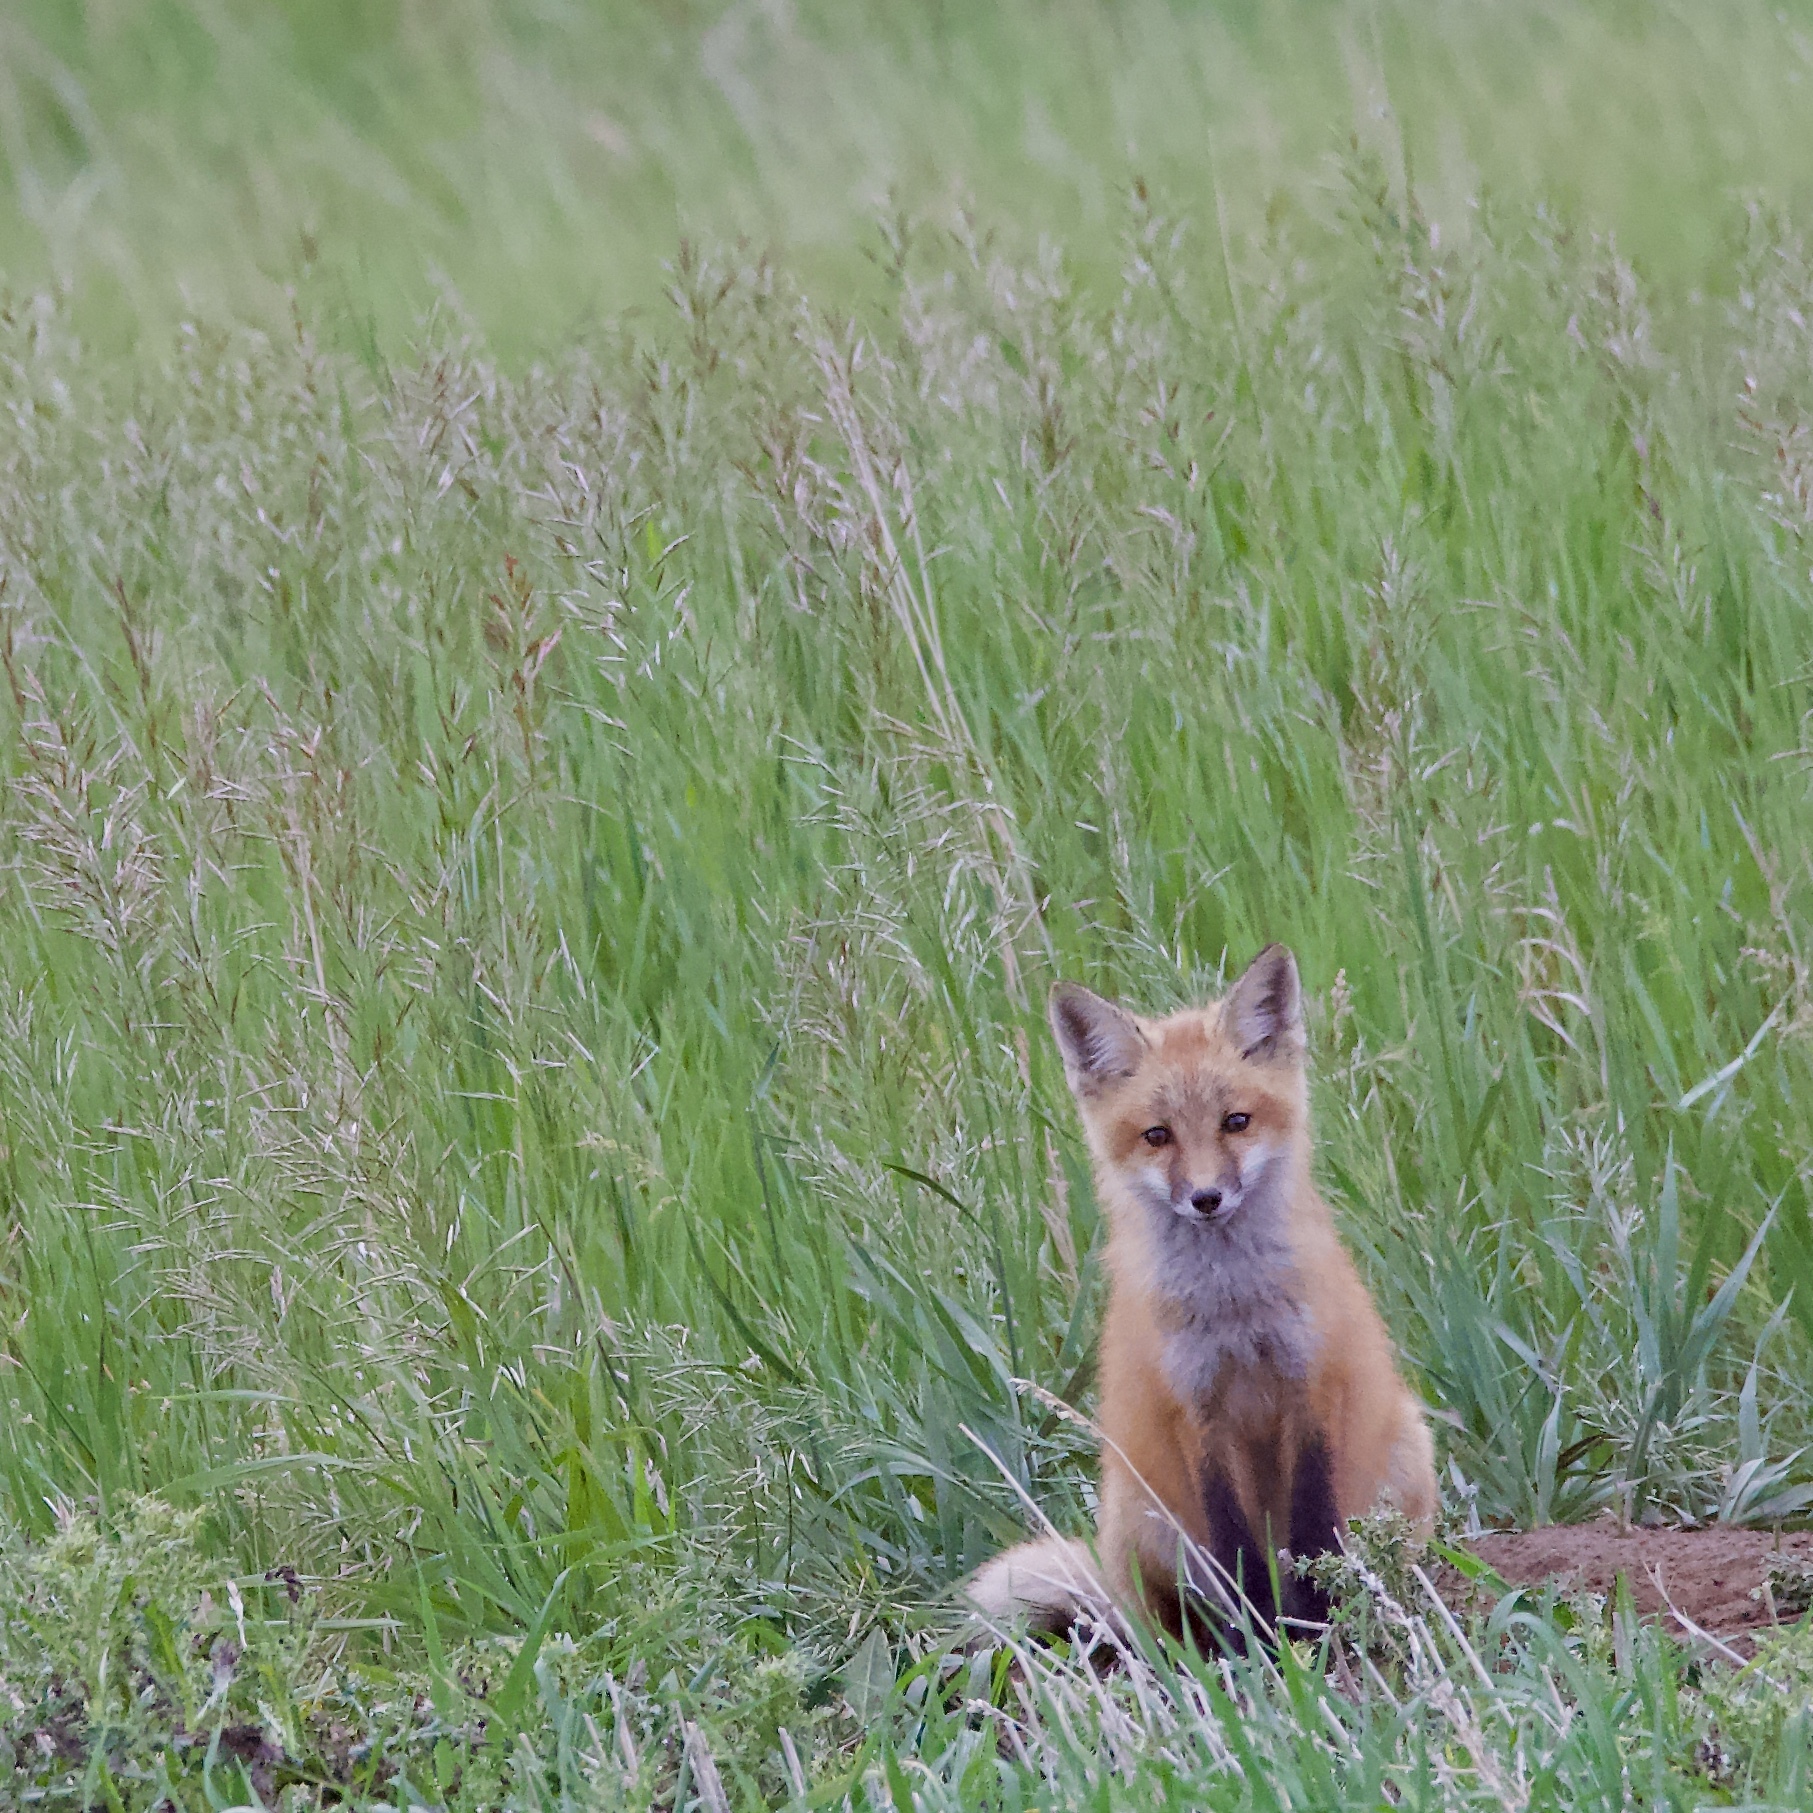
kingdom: Animalia
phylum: Chordata
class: Mammalia
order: Carnivora
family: Canidae
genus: Vulpes
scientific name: Vulpes vulpes
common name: Red fox
